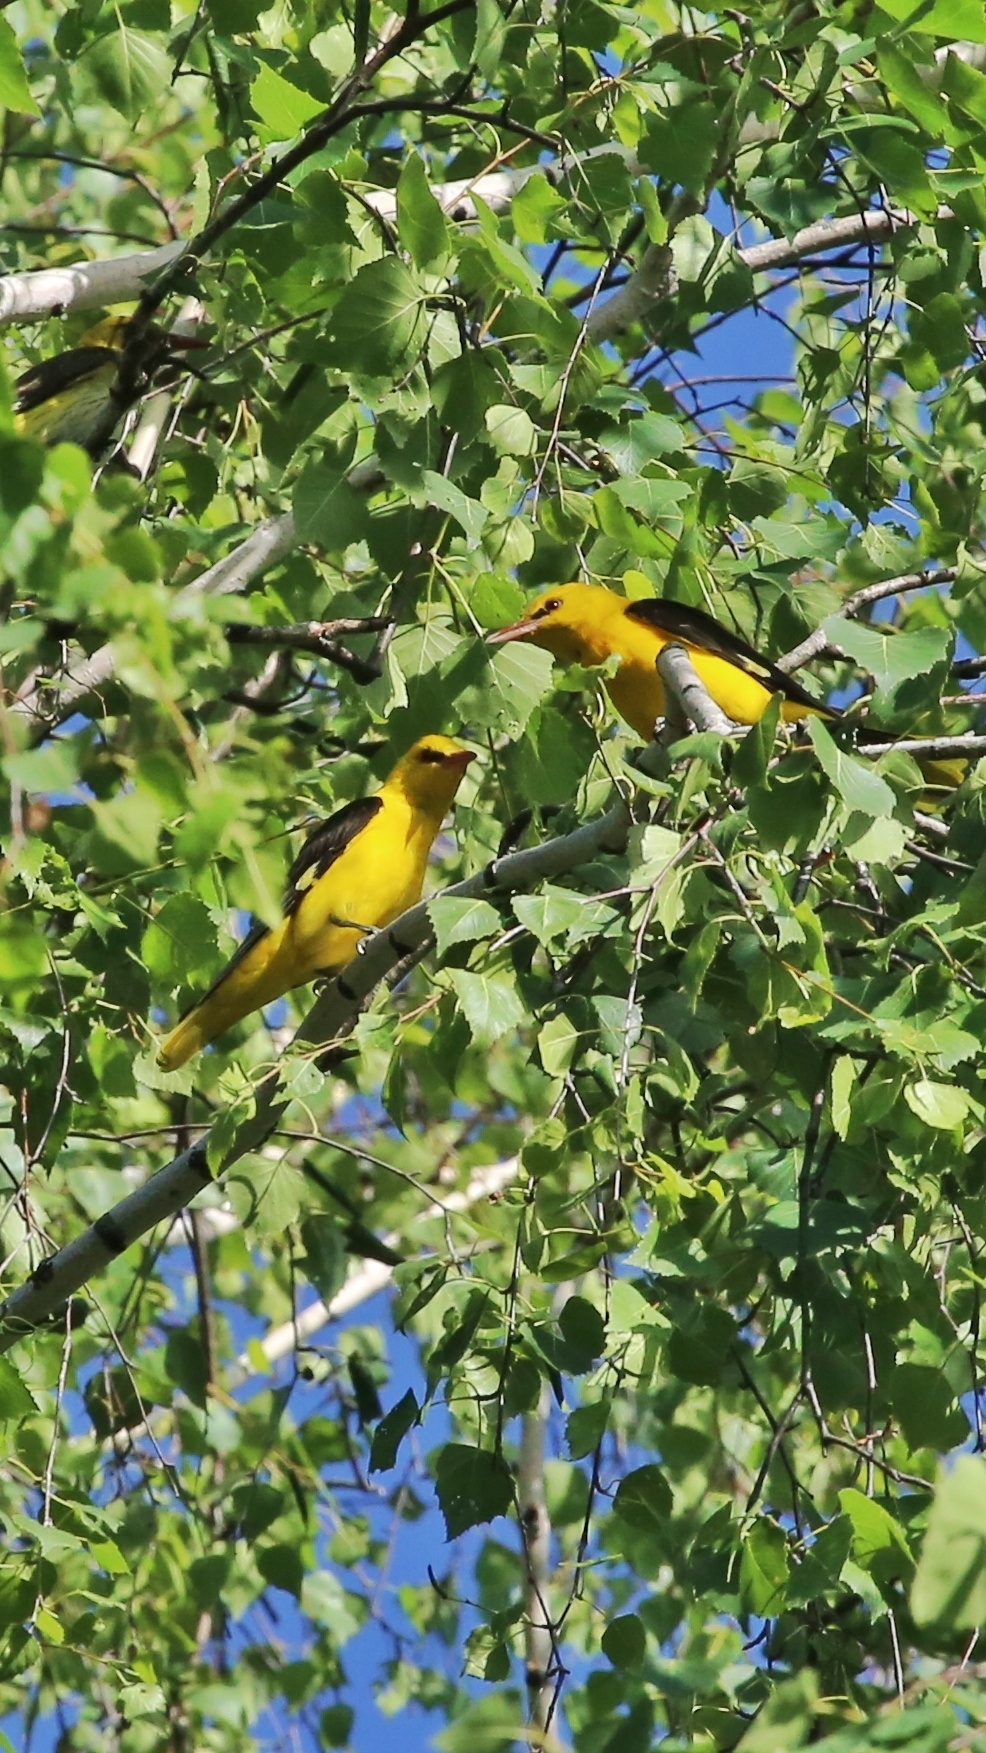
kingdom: Animalia
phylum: Chordata
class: Aves
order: Passeriformes
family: Oriolidae
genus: Oriolus
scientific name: Oriolus oriolus
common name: Eurasian golden oriole
